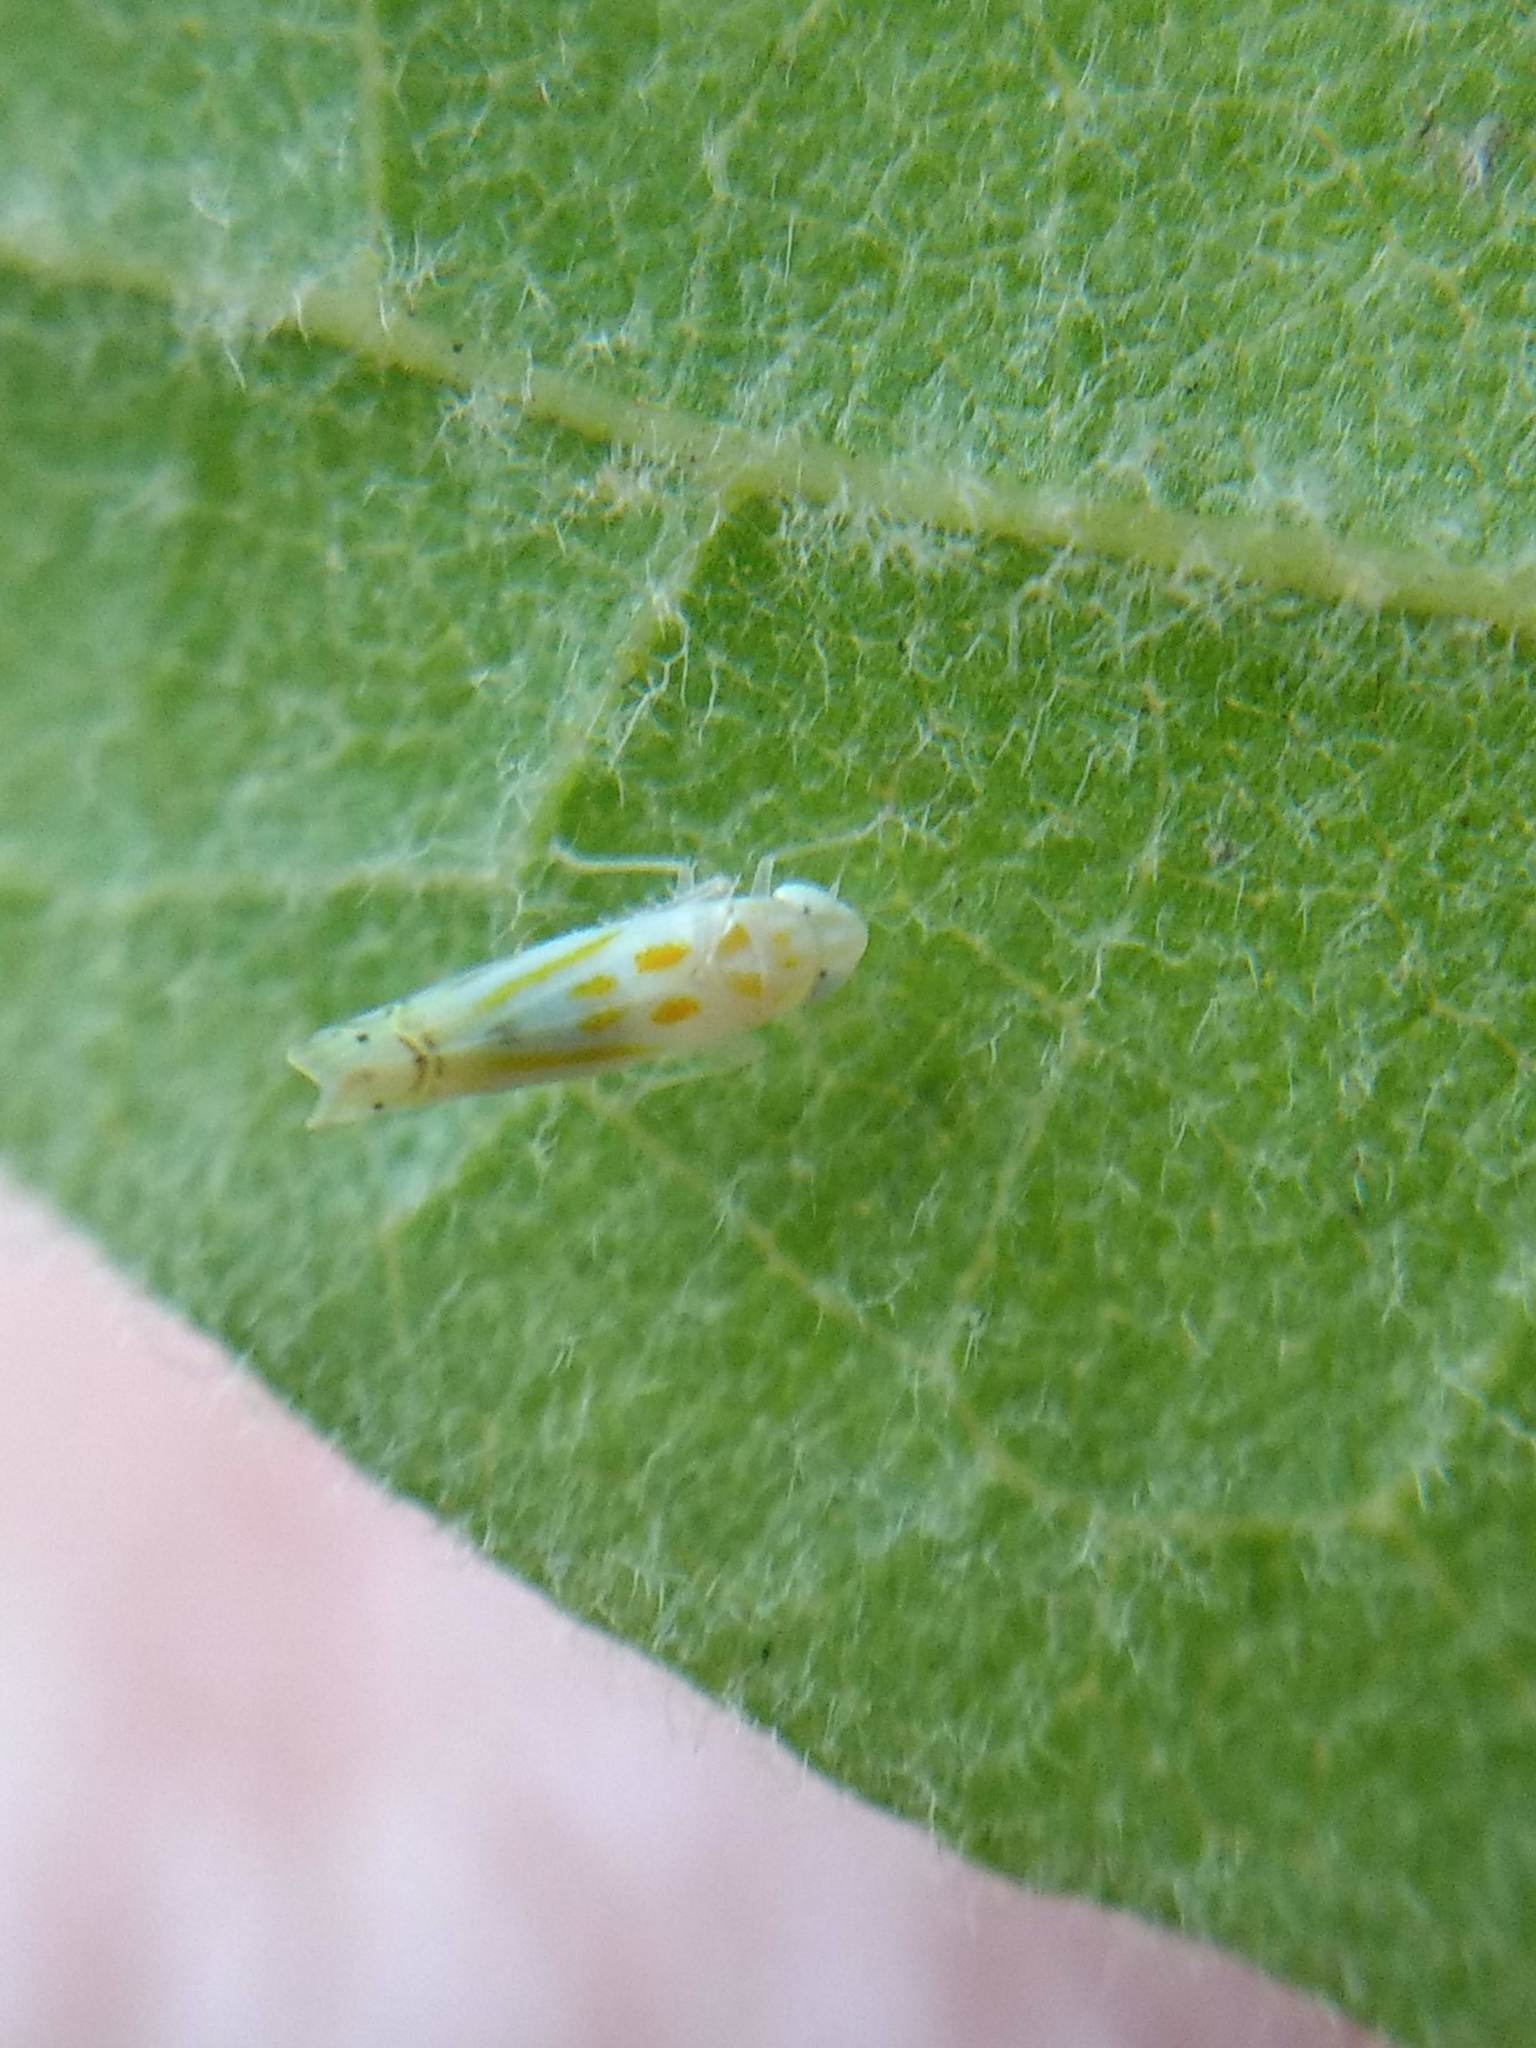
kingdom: Animalia
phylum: Arthropoda
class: Insecta
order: Hemiptera
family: Cicadellidae
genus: Alconeura
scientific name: Alconeura quadrimaculata
